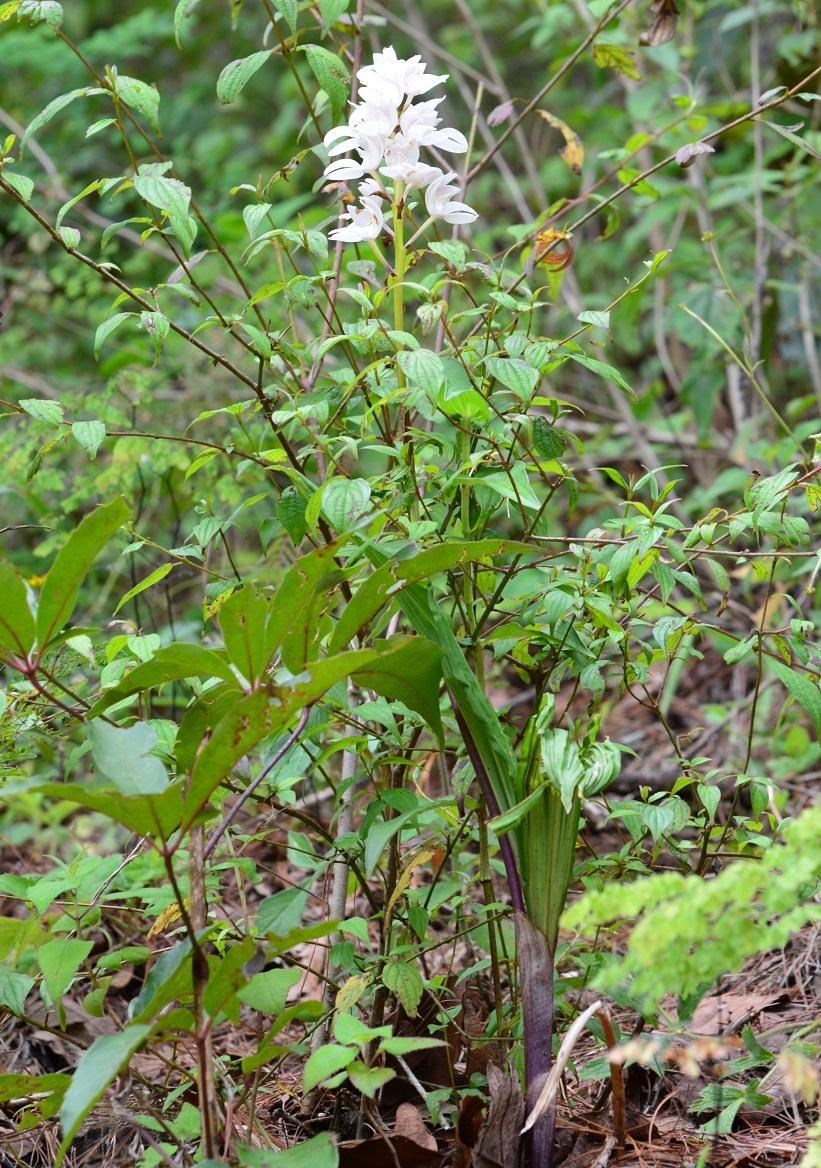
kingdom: Plantae
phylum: Tracheophyta
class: Liliopsida
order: Asparagales
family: Orchidaceae
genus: Govenia
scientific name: Govenia liliacea
